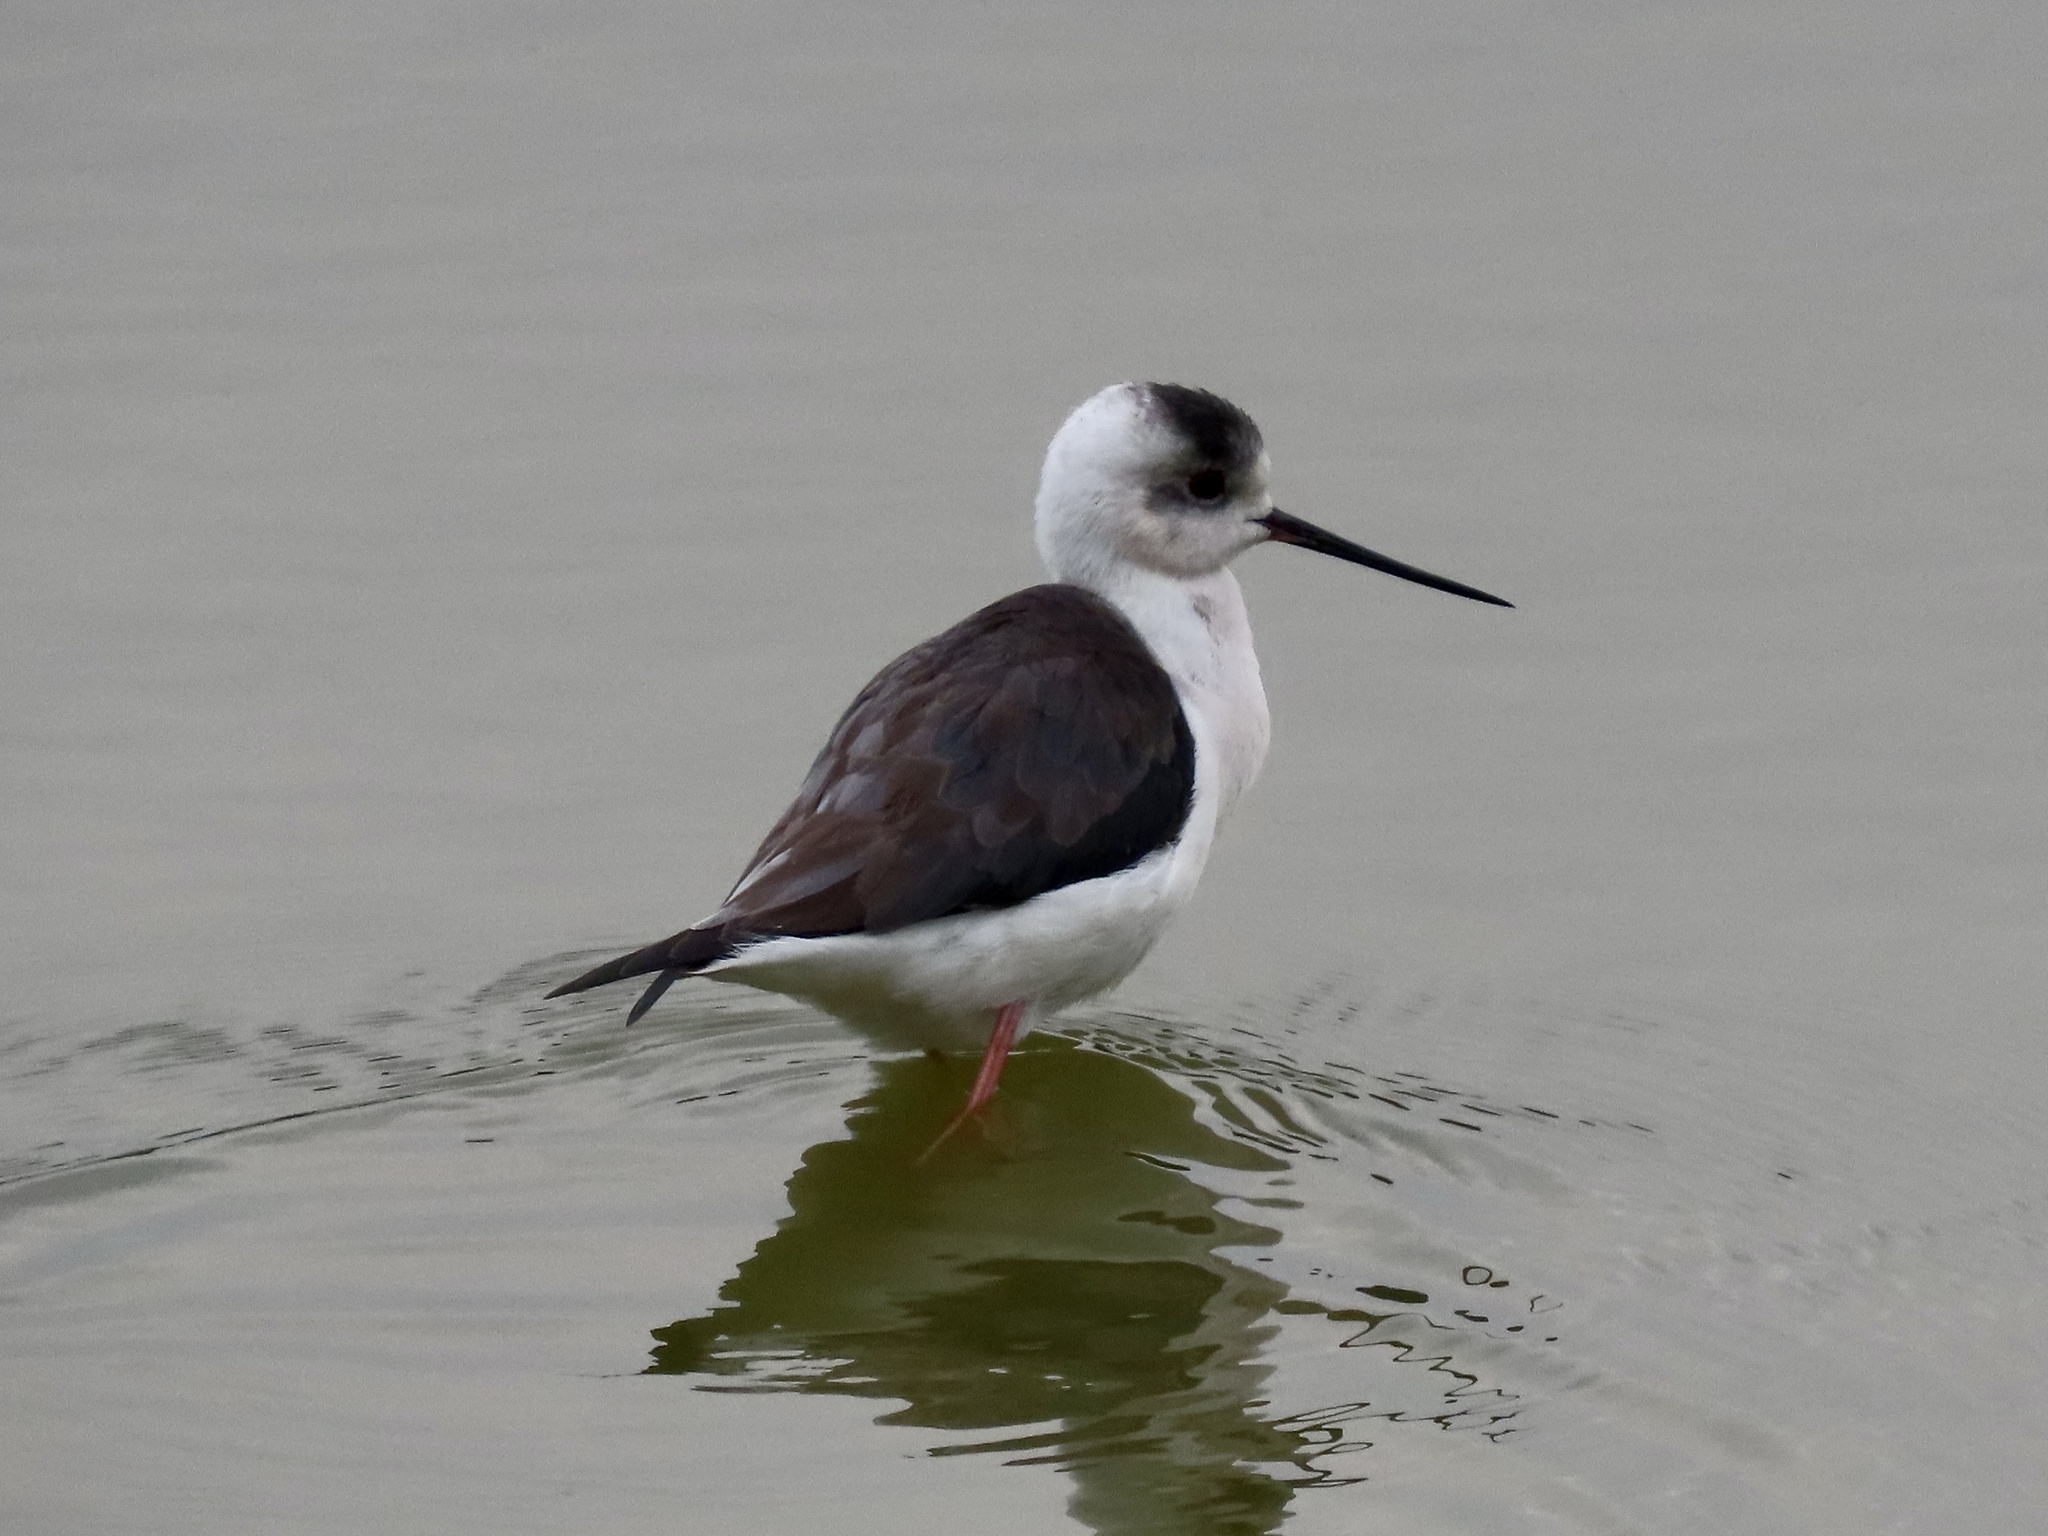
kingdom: Animalia
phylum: Chordata
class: Aves
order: Charadriiformes
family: Recurvirostridae
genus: Himantopus
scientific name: Himantopus himantopus
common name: Black-winged stilt
